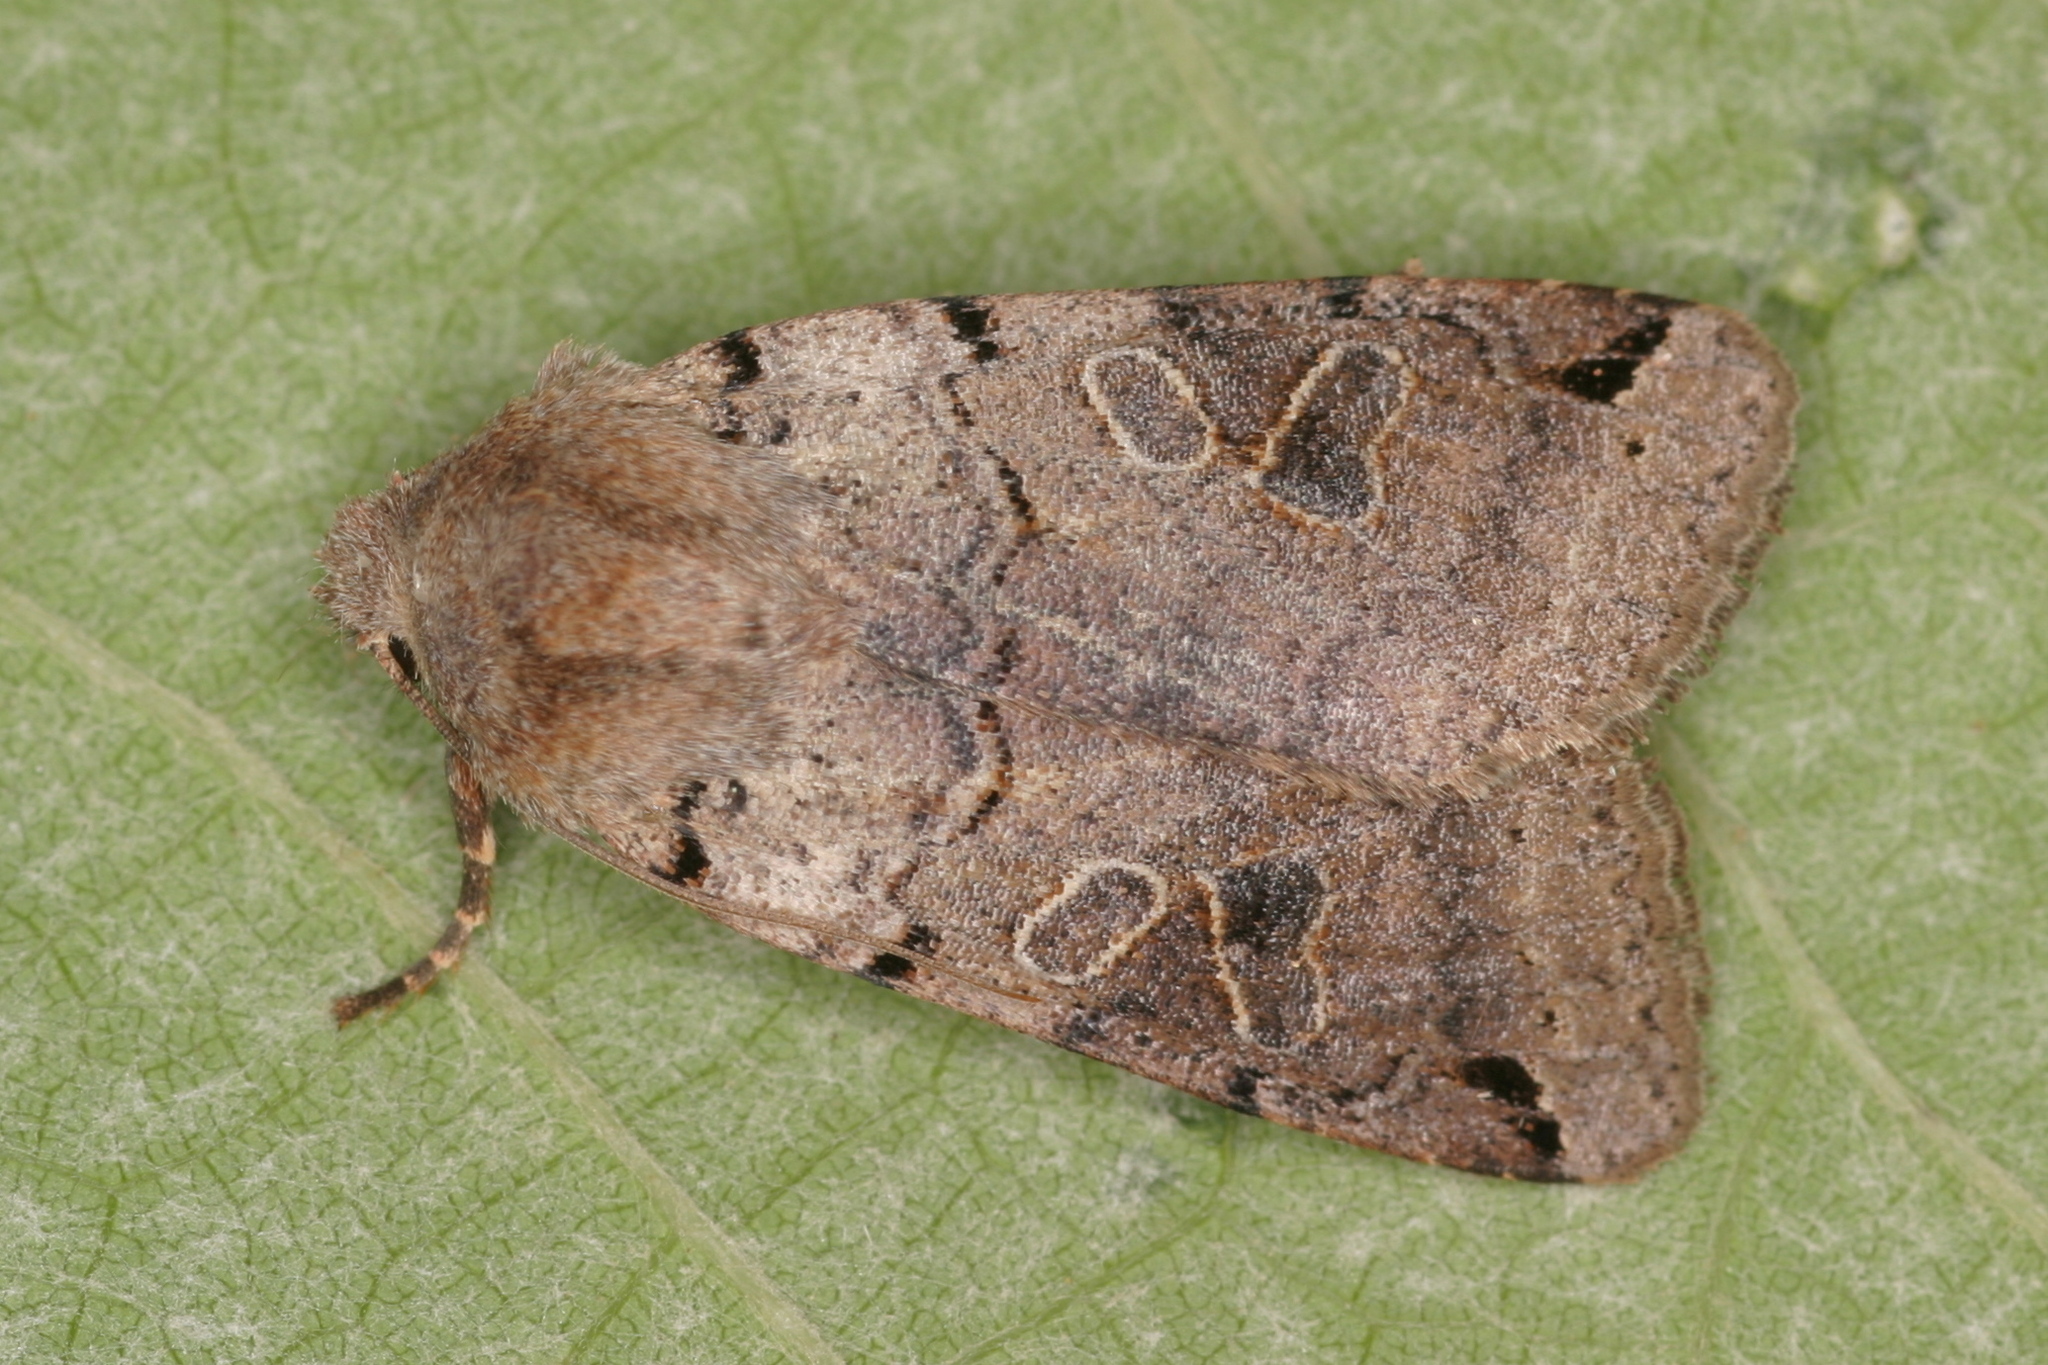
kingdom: Animalia
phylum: Arthropoda
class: Insecta
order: Lepidoptera
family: Noctuidae
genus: Agrochola
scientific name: Agrochola litura
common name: Brown-spot pinion
